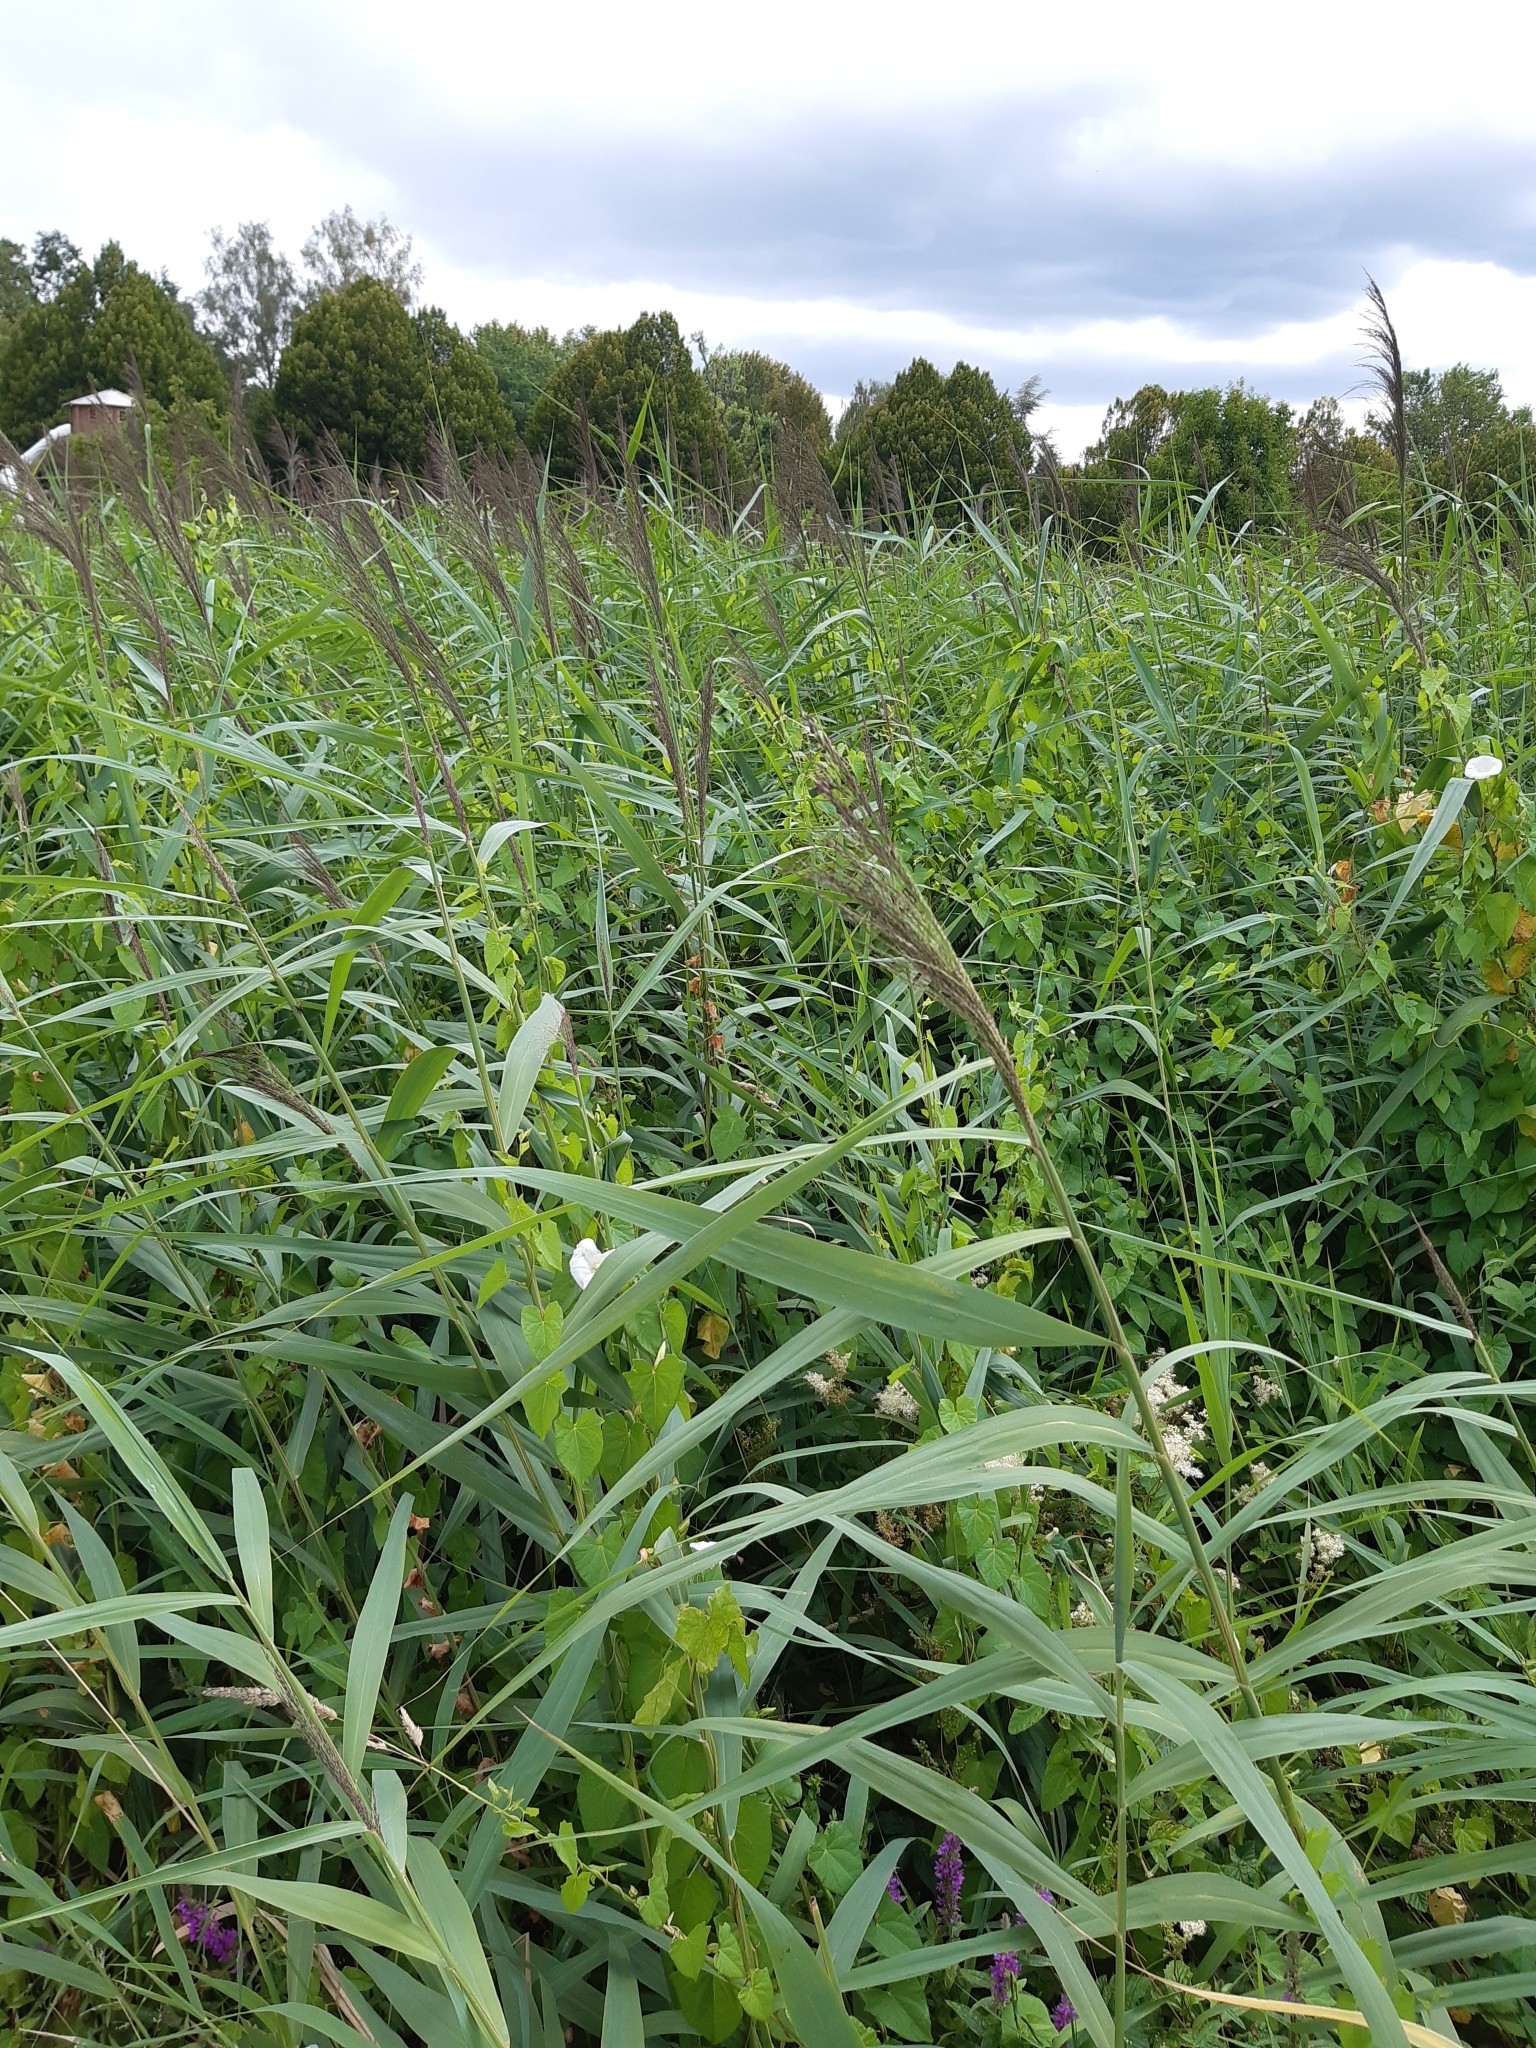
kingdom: Plantae
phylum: Tracheophyta
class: Liliopsida
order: Poales
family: Poaceae
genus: Phragmites
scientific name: Phragmites australis
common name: Common reed
